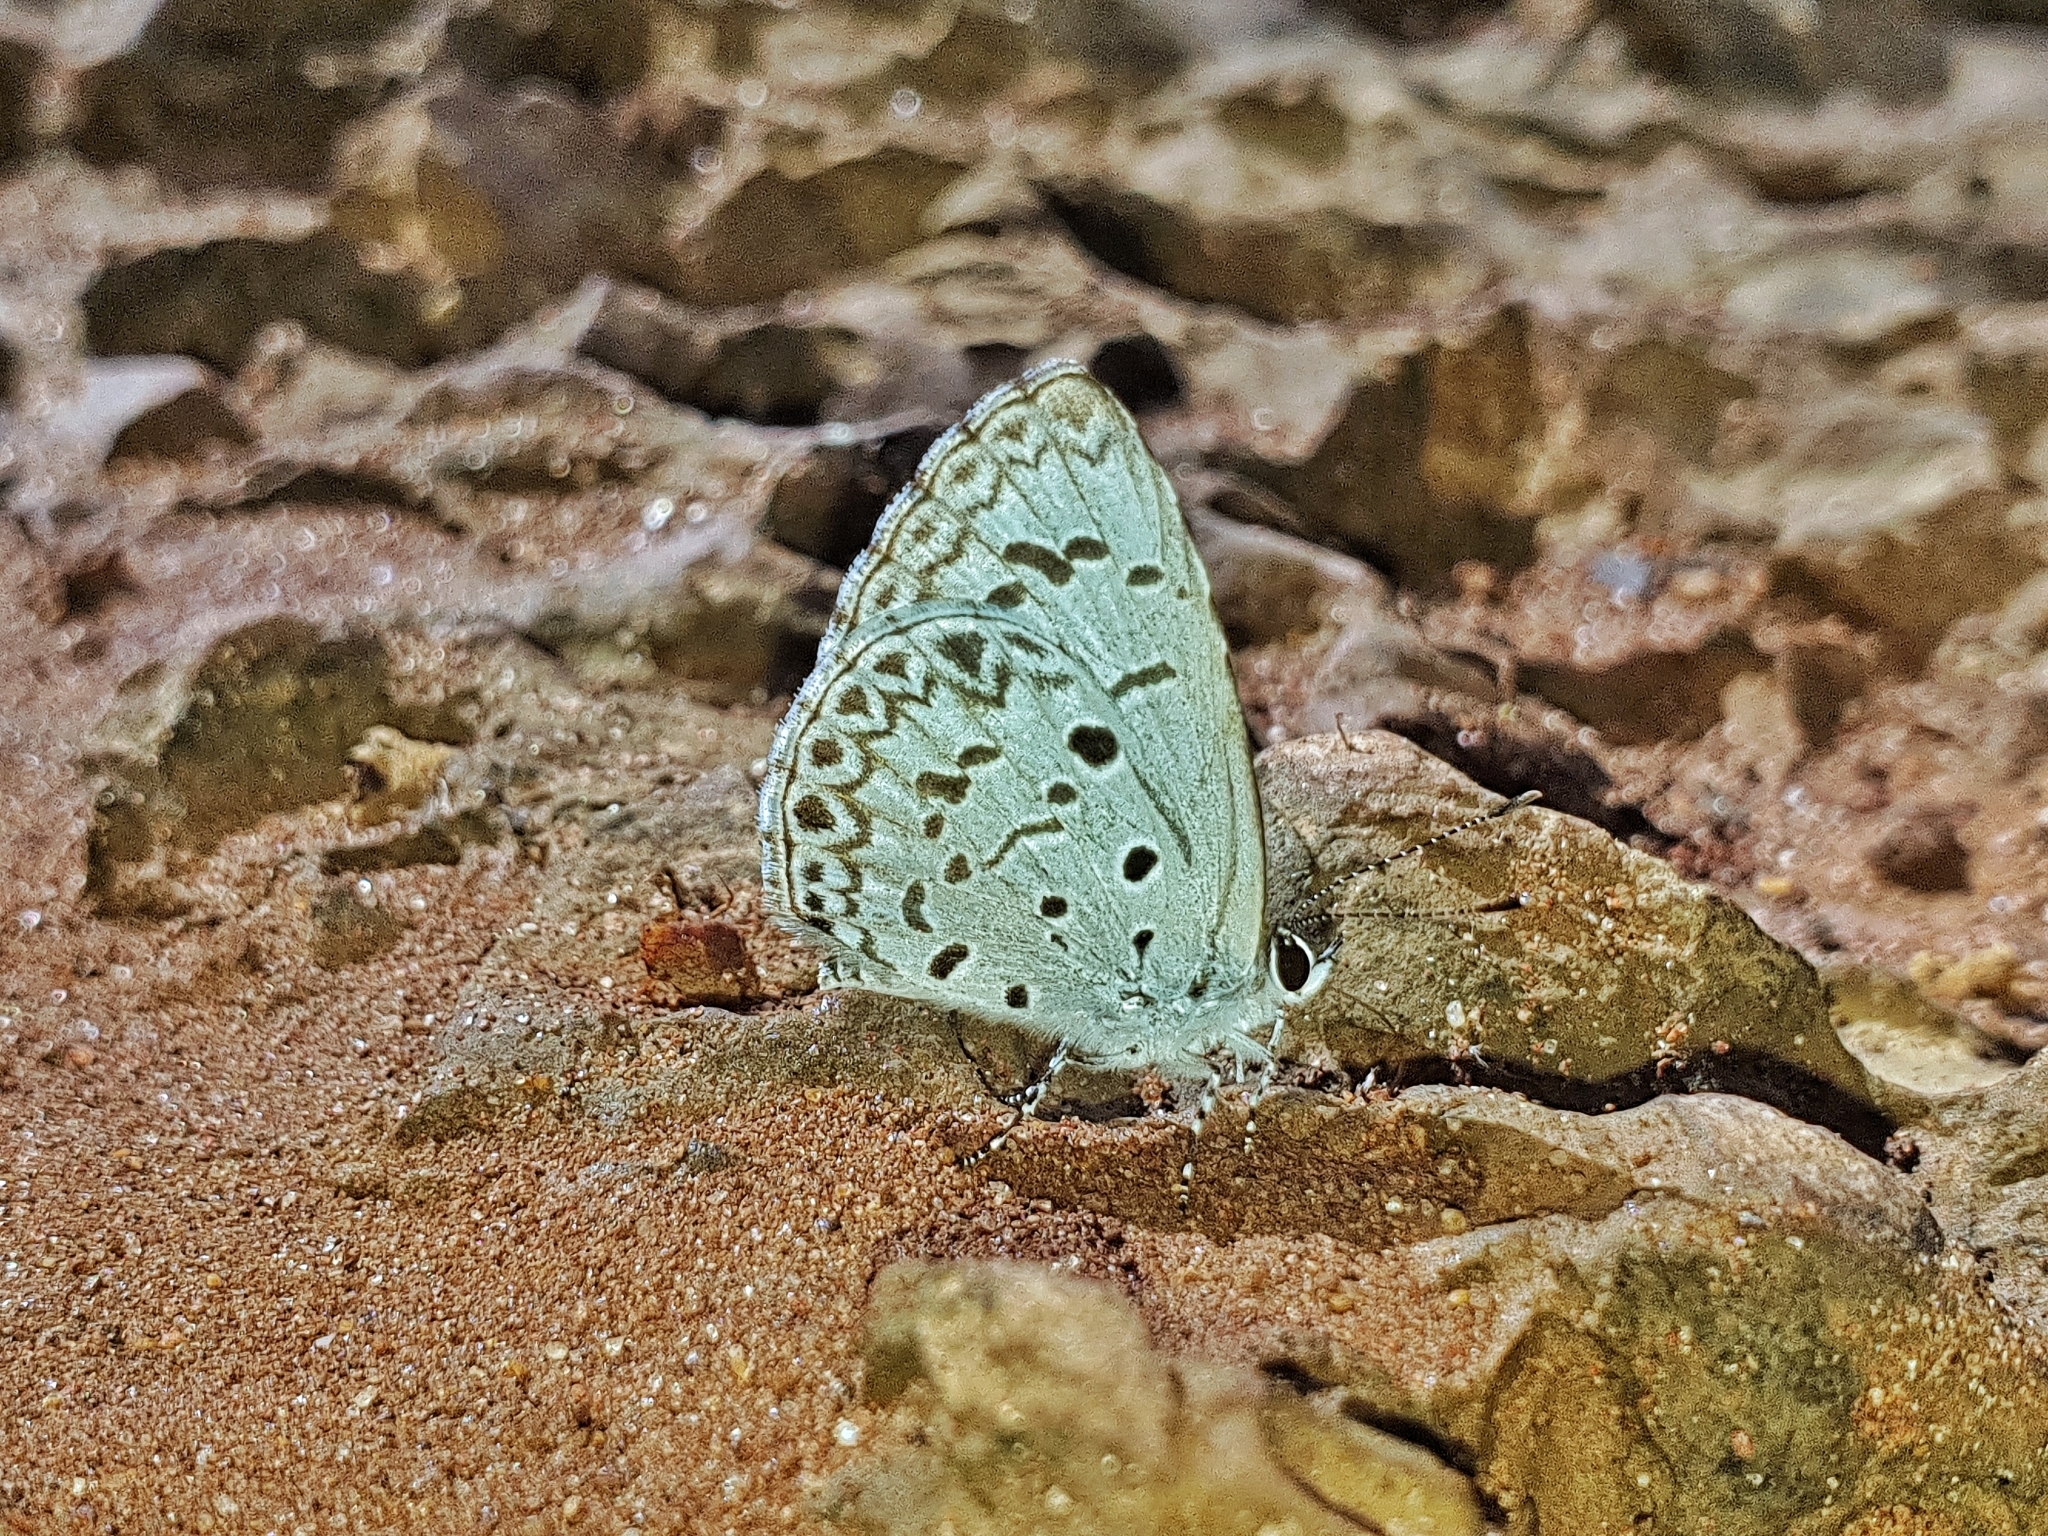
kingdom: Animalia
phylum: Arthropoda
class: Insecta
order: Lepidoptera
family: Lycaenidae
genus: Acytolepis
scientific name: Acytolepis puspa
